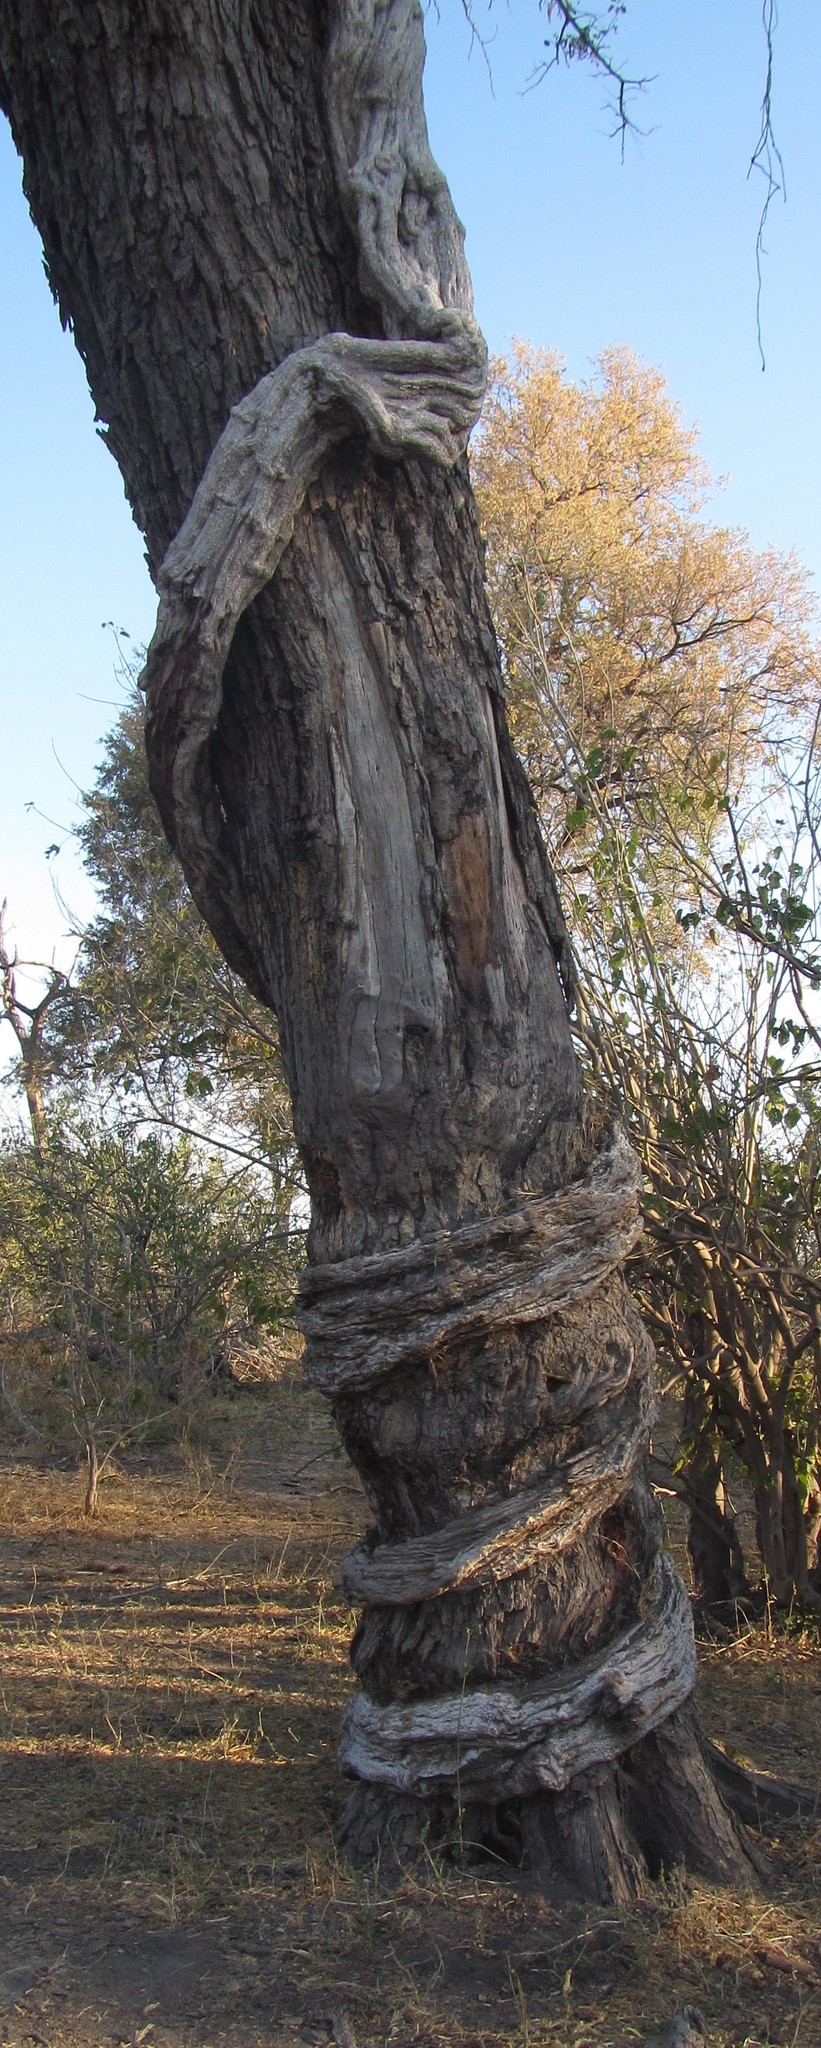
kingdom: Plantae
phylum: Tracheophyta
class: Magnoliopsida
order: Ranunculales
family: Menispermaceae
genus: Cocculus
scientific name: Cocculus hirsutus
